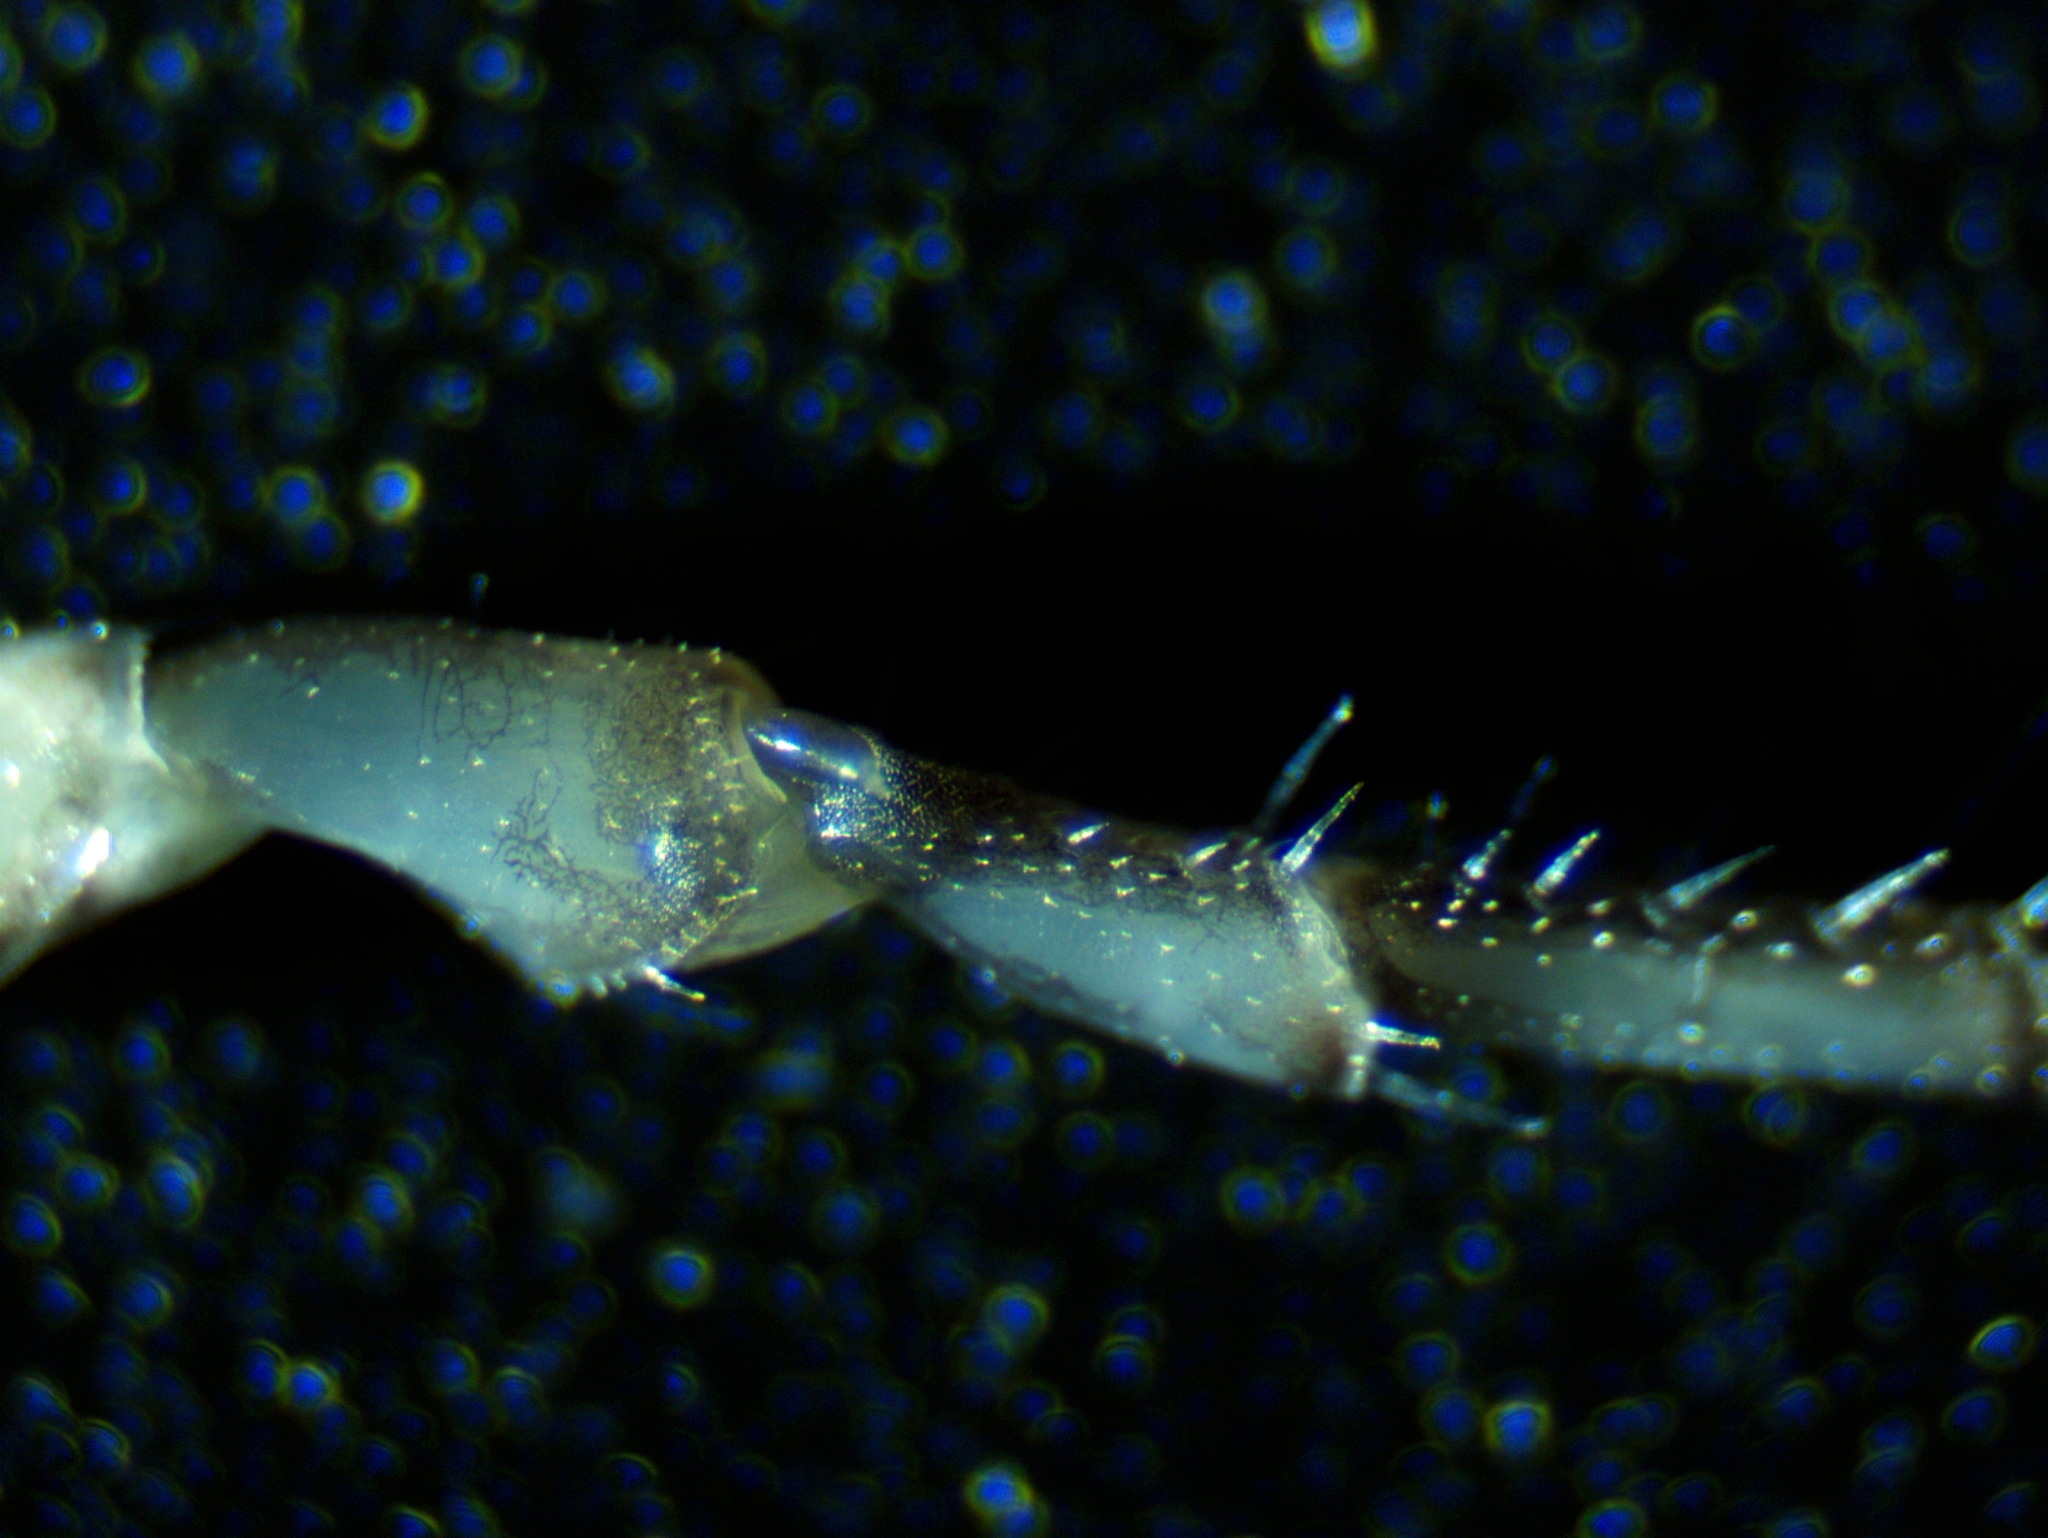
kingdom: Animalia
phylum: Arthropoda
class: Malacostraca
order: Isopoda
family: Philosciidae
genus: Philoscia
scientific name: Philoscia muscorum
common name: Common striped woodlouse
